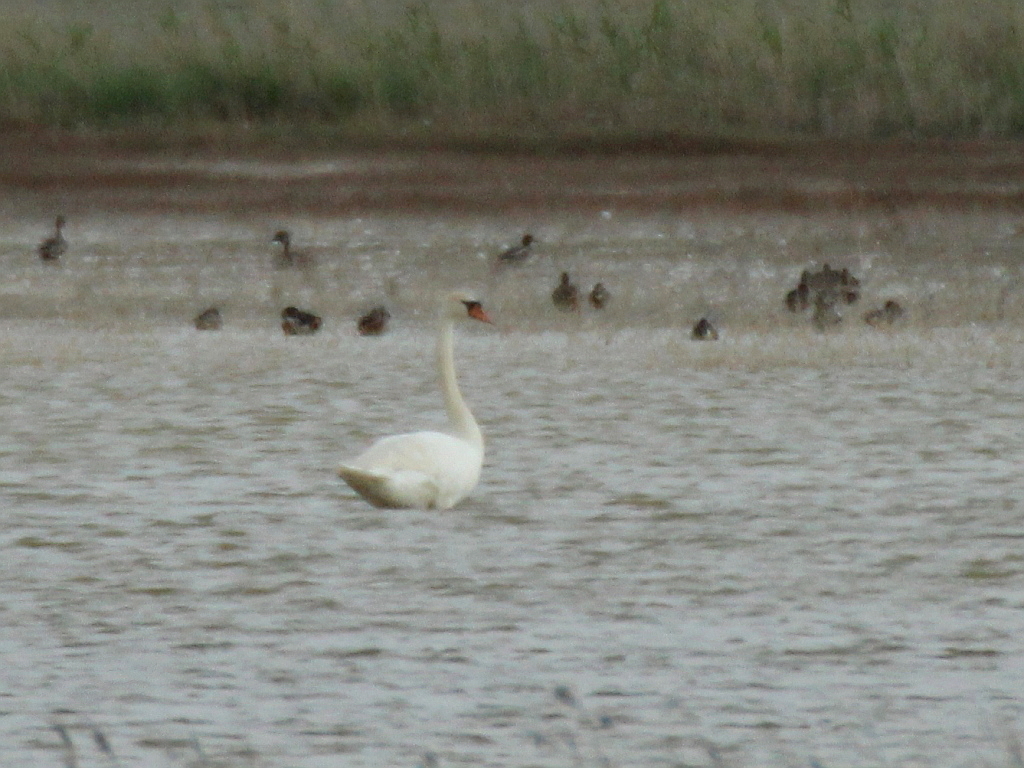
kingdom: Animalia
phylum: Chordata
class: Aves
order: Anseriformes
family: Anatidae
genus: Cygnus
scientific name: Cygnus olor
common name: Mute swan
